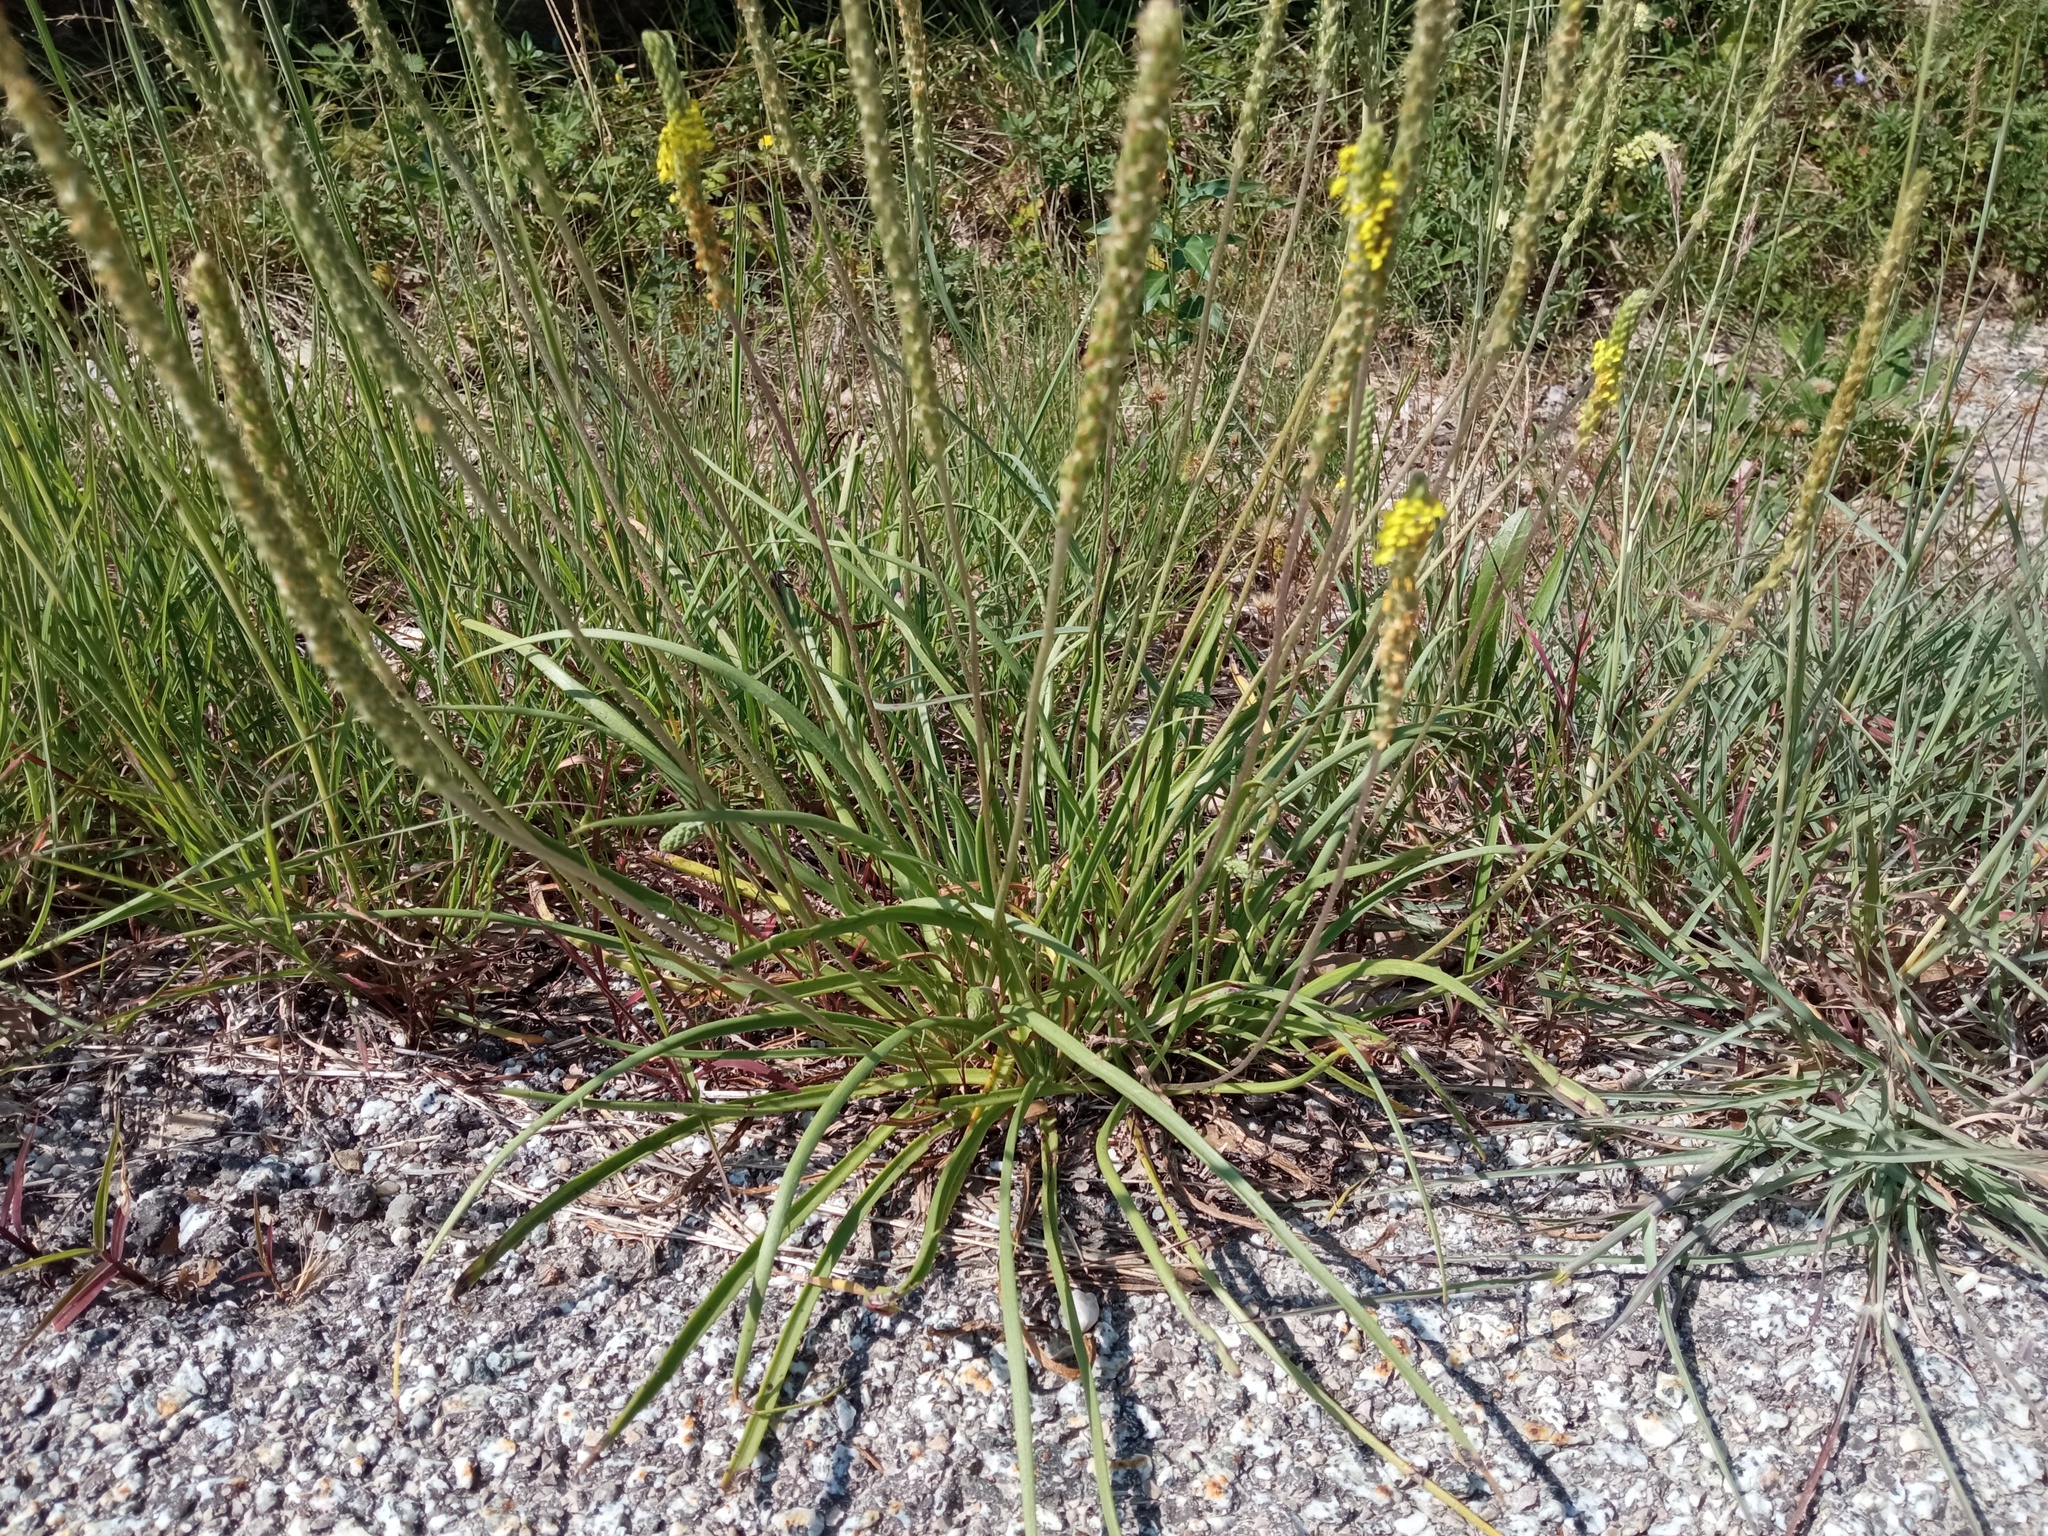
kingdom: Plantae
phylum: Tracheophyta
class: Magnoliopsida
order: Lamiales
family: Plantaginaceae
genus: Plantago
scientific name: Plantago
